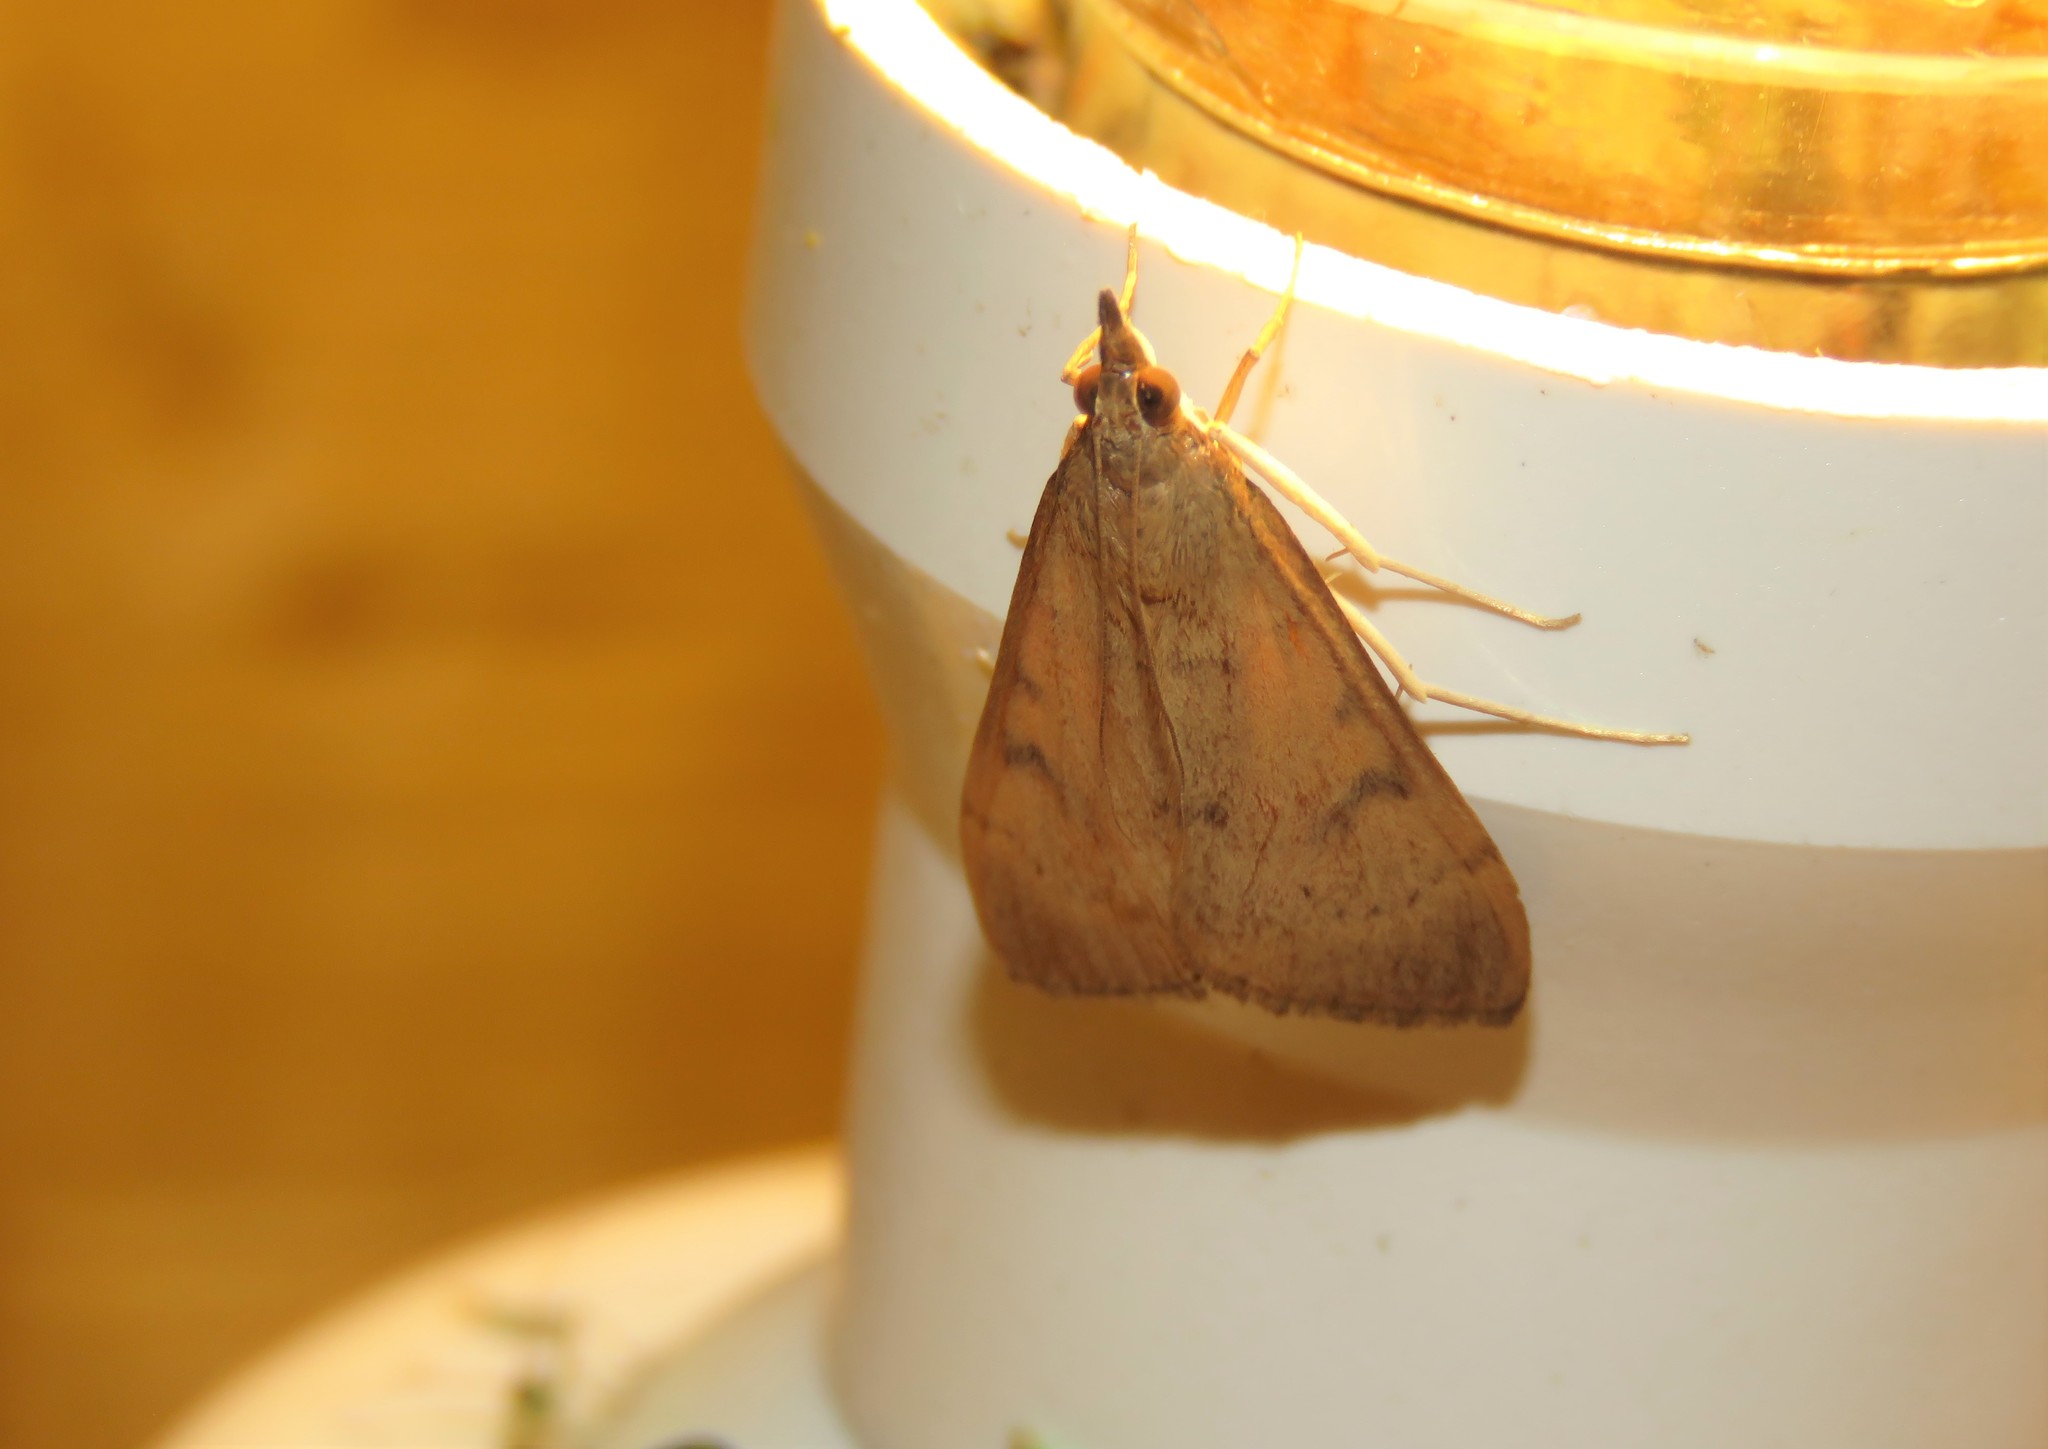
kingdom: Animalia
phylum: Arthropoda
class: Insecta
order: Lepidoptera
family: Crambidae
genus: Uresiphita
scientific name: Uresiphita gilvata
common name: Yellow-underwing pearl
